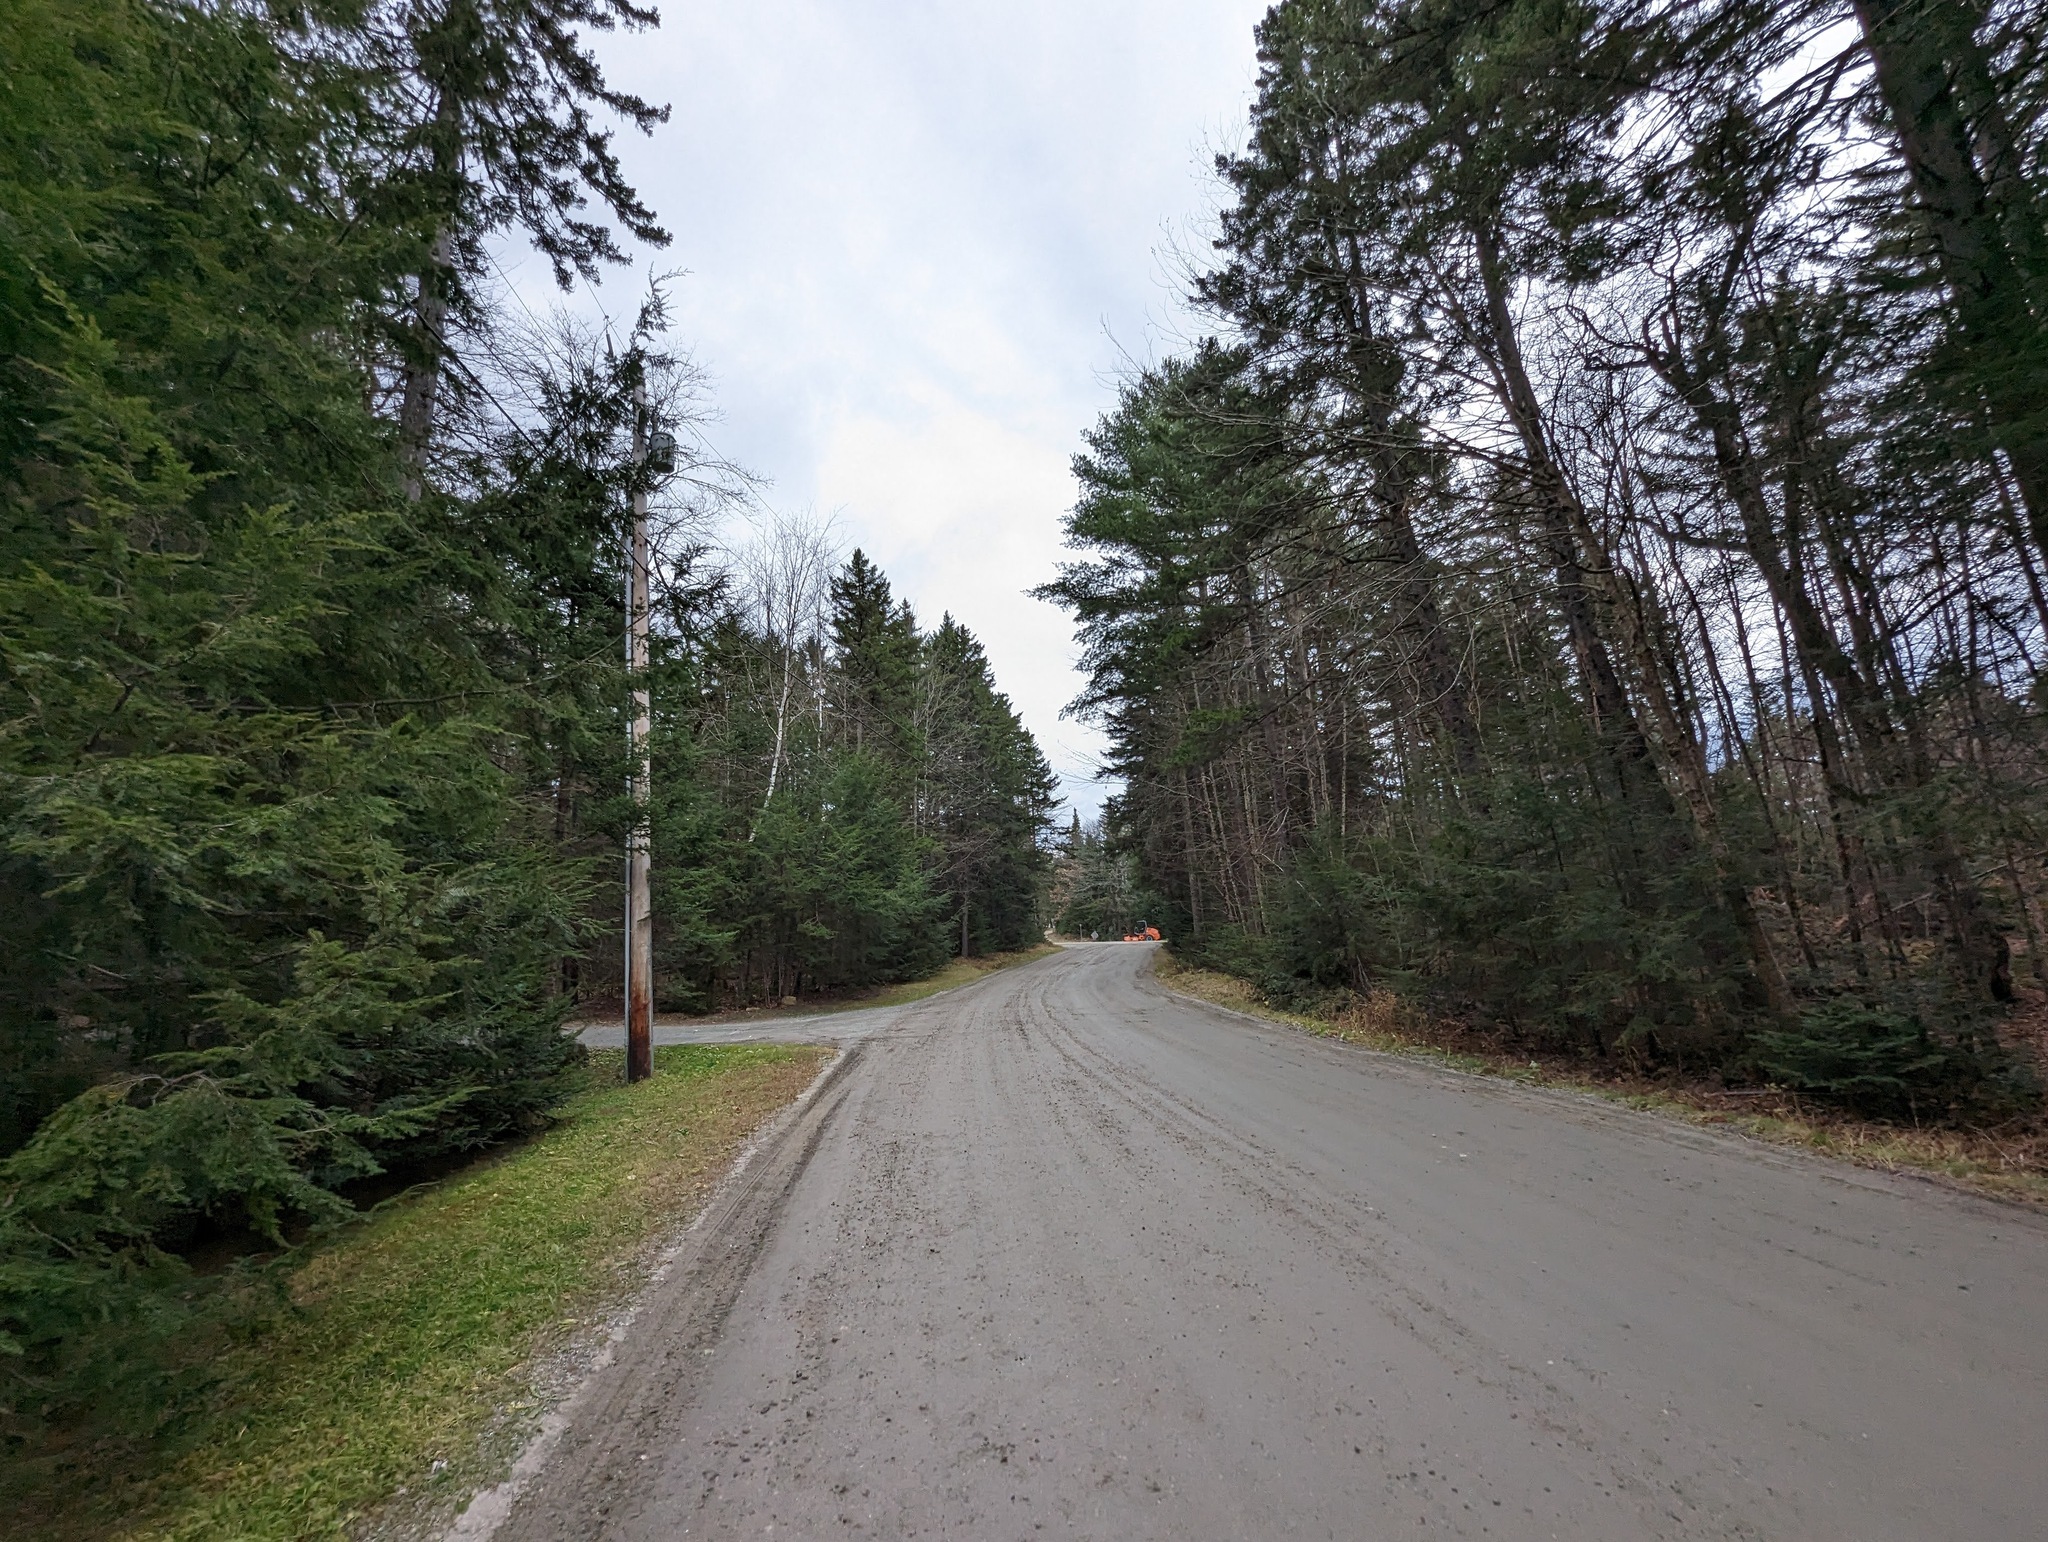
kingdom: Plantae
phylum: Tracheophyta
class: Pinopsida
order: Pinales
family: Pinaceae
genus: Pinus
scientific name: Pinus strobus
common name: Weymouth pine
